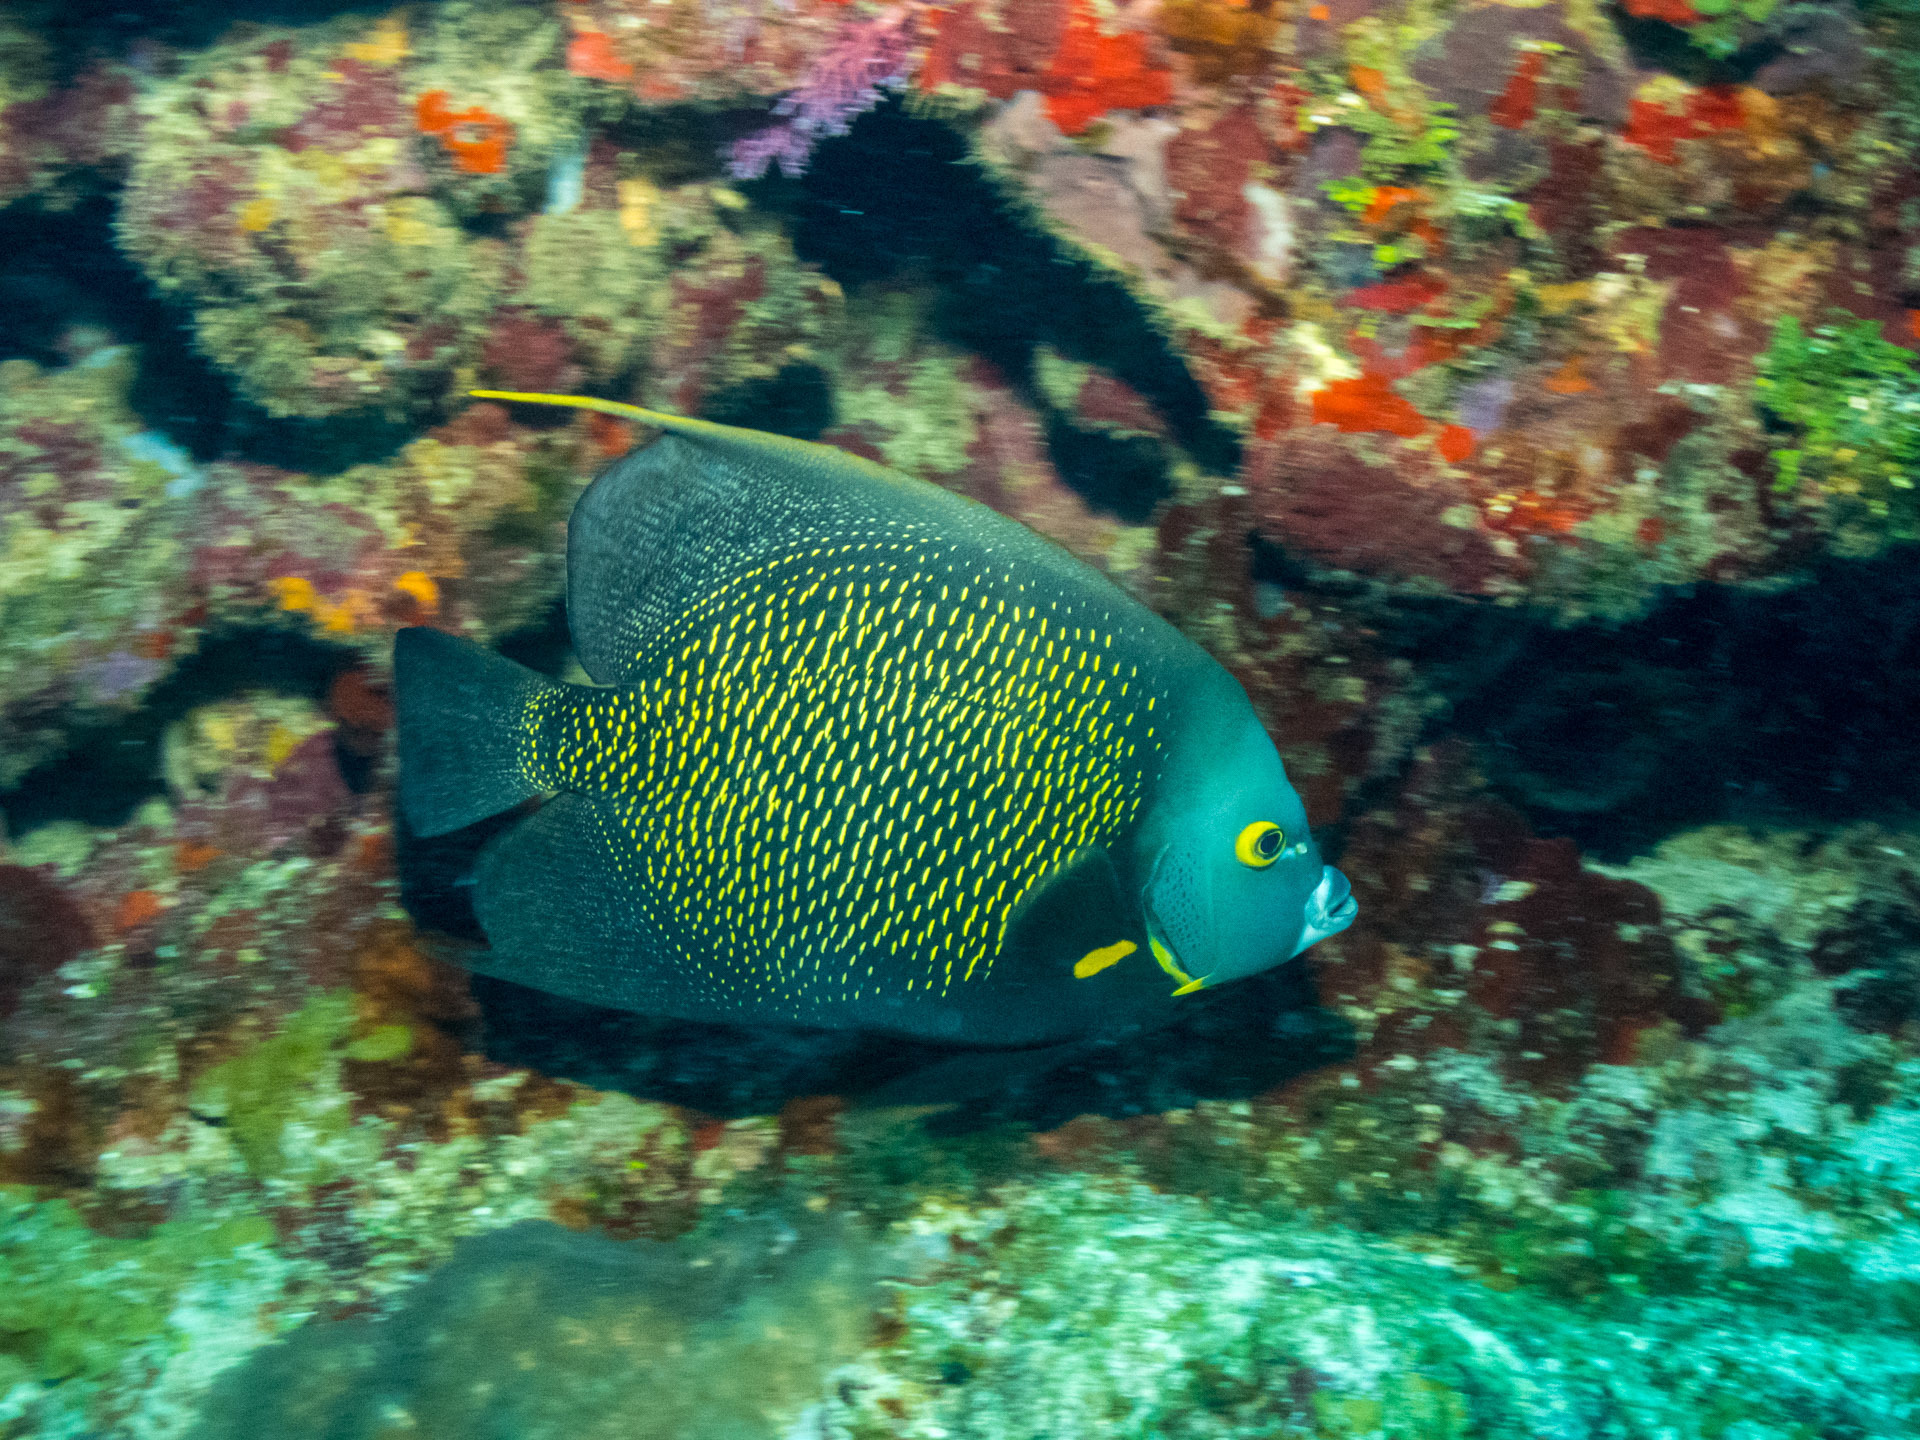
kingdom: Animalia
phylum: Chordata
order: Perciformes
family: Pomacanthidae
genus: Pomacanthus
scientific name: Pomacanthus paru
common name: French angelfish
